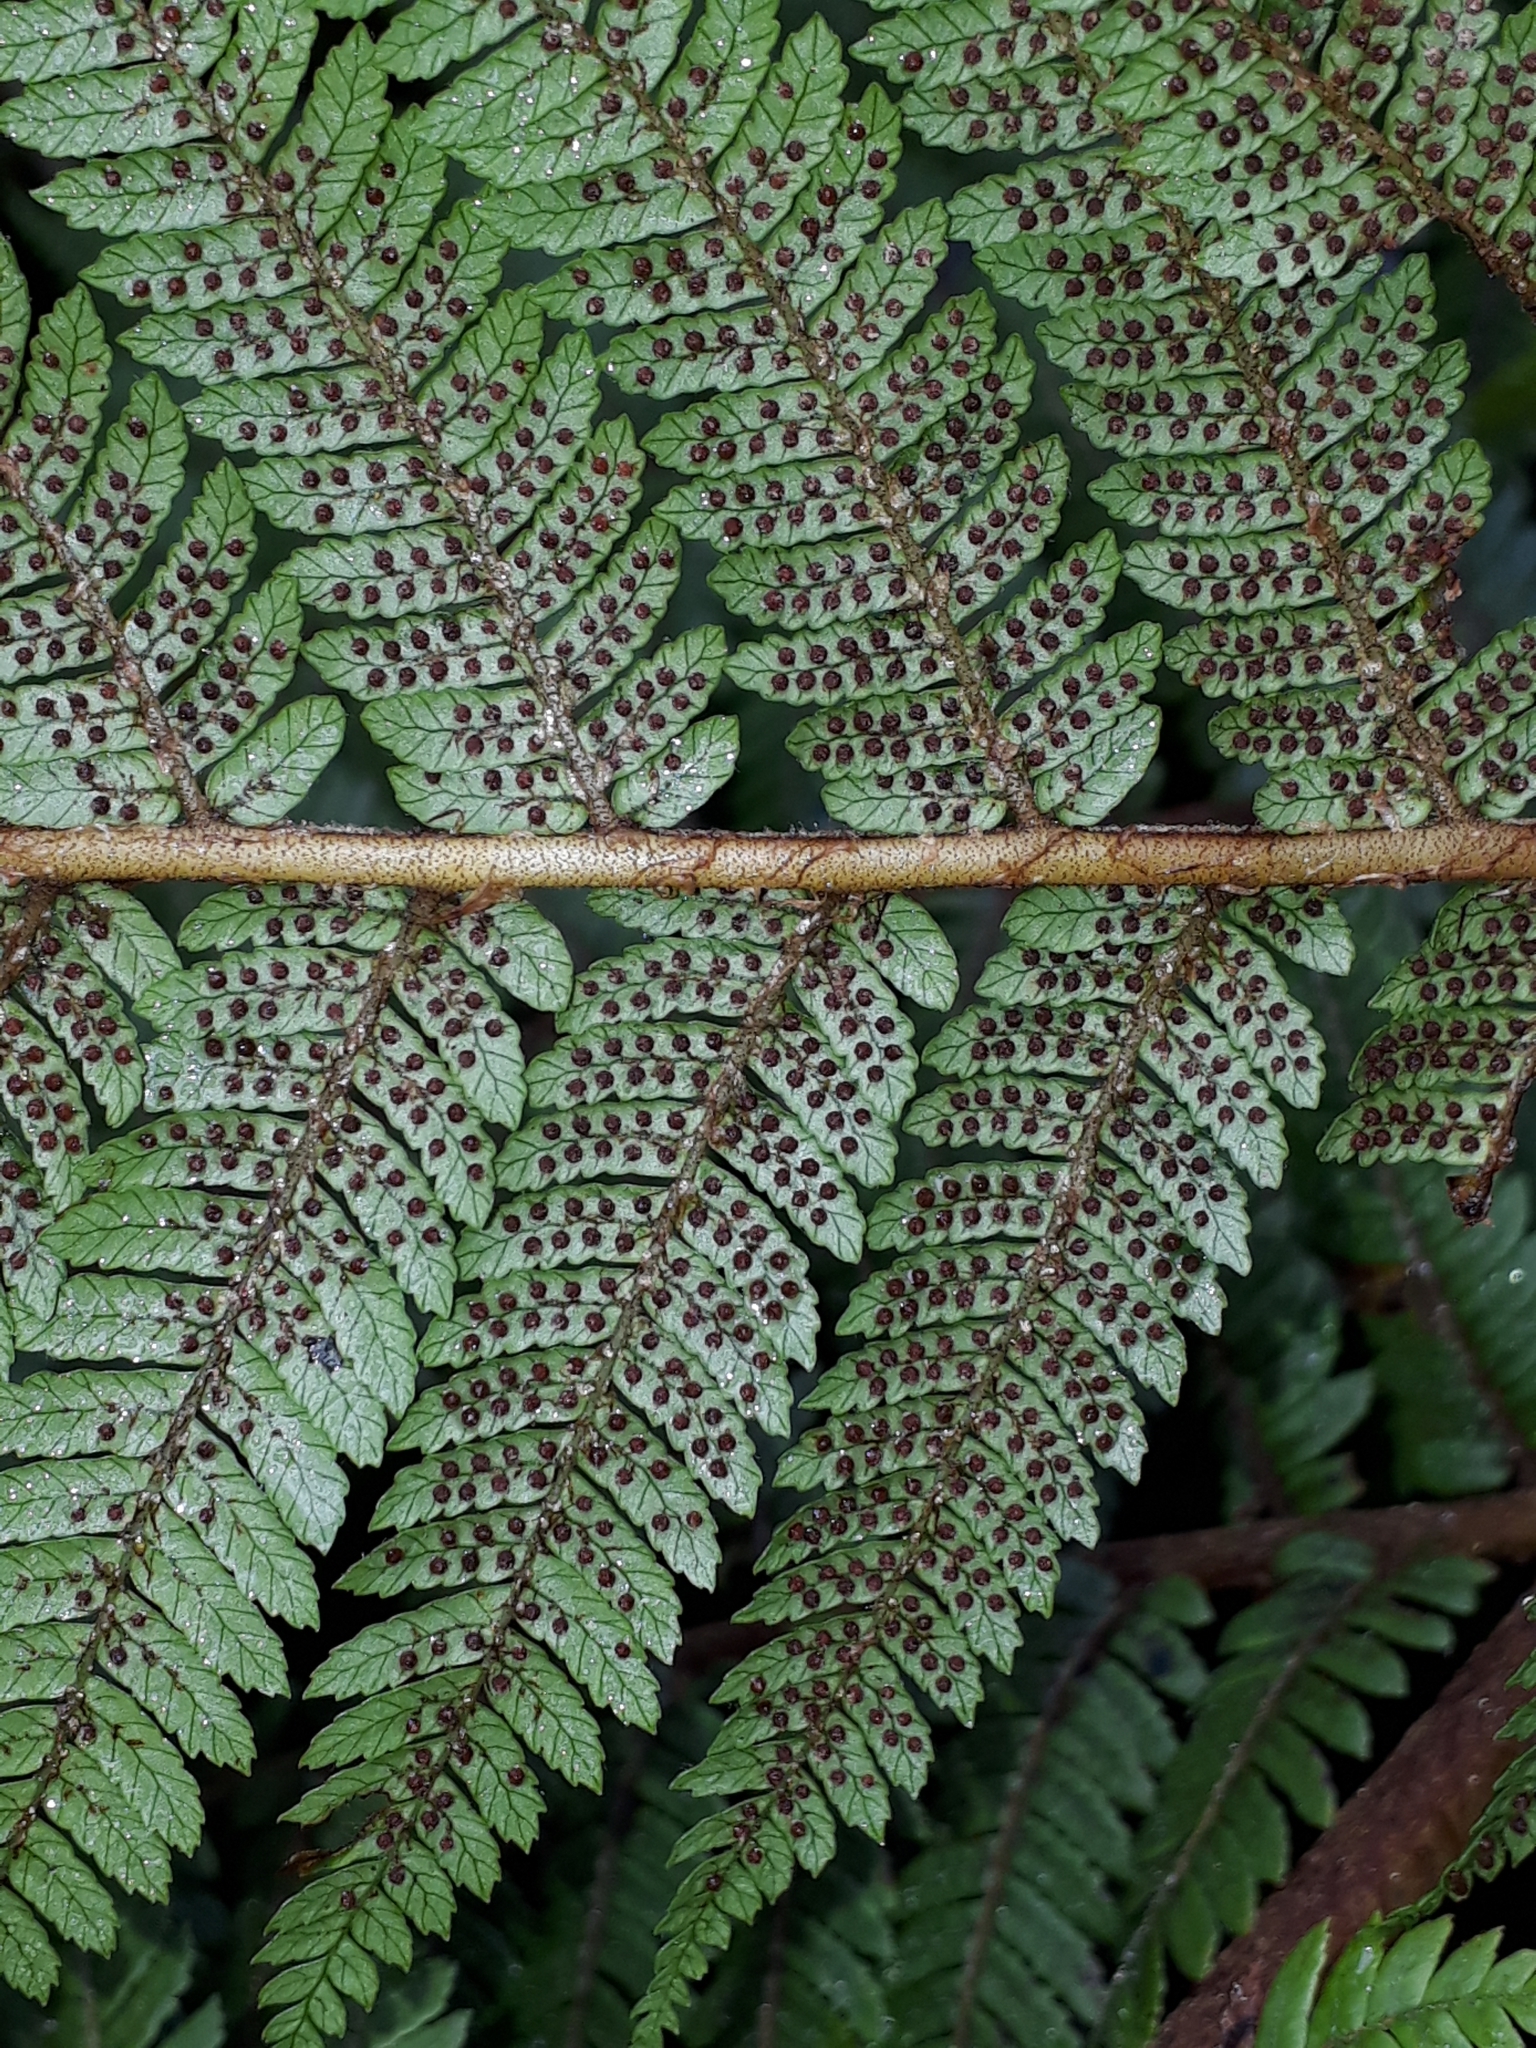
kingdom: Plantae
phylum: Tracheophyta
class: Polypodiopsida
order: Cyatheales
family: Cyatheaceae
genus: Alsophila
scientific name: Alsophila colensoi
